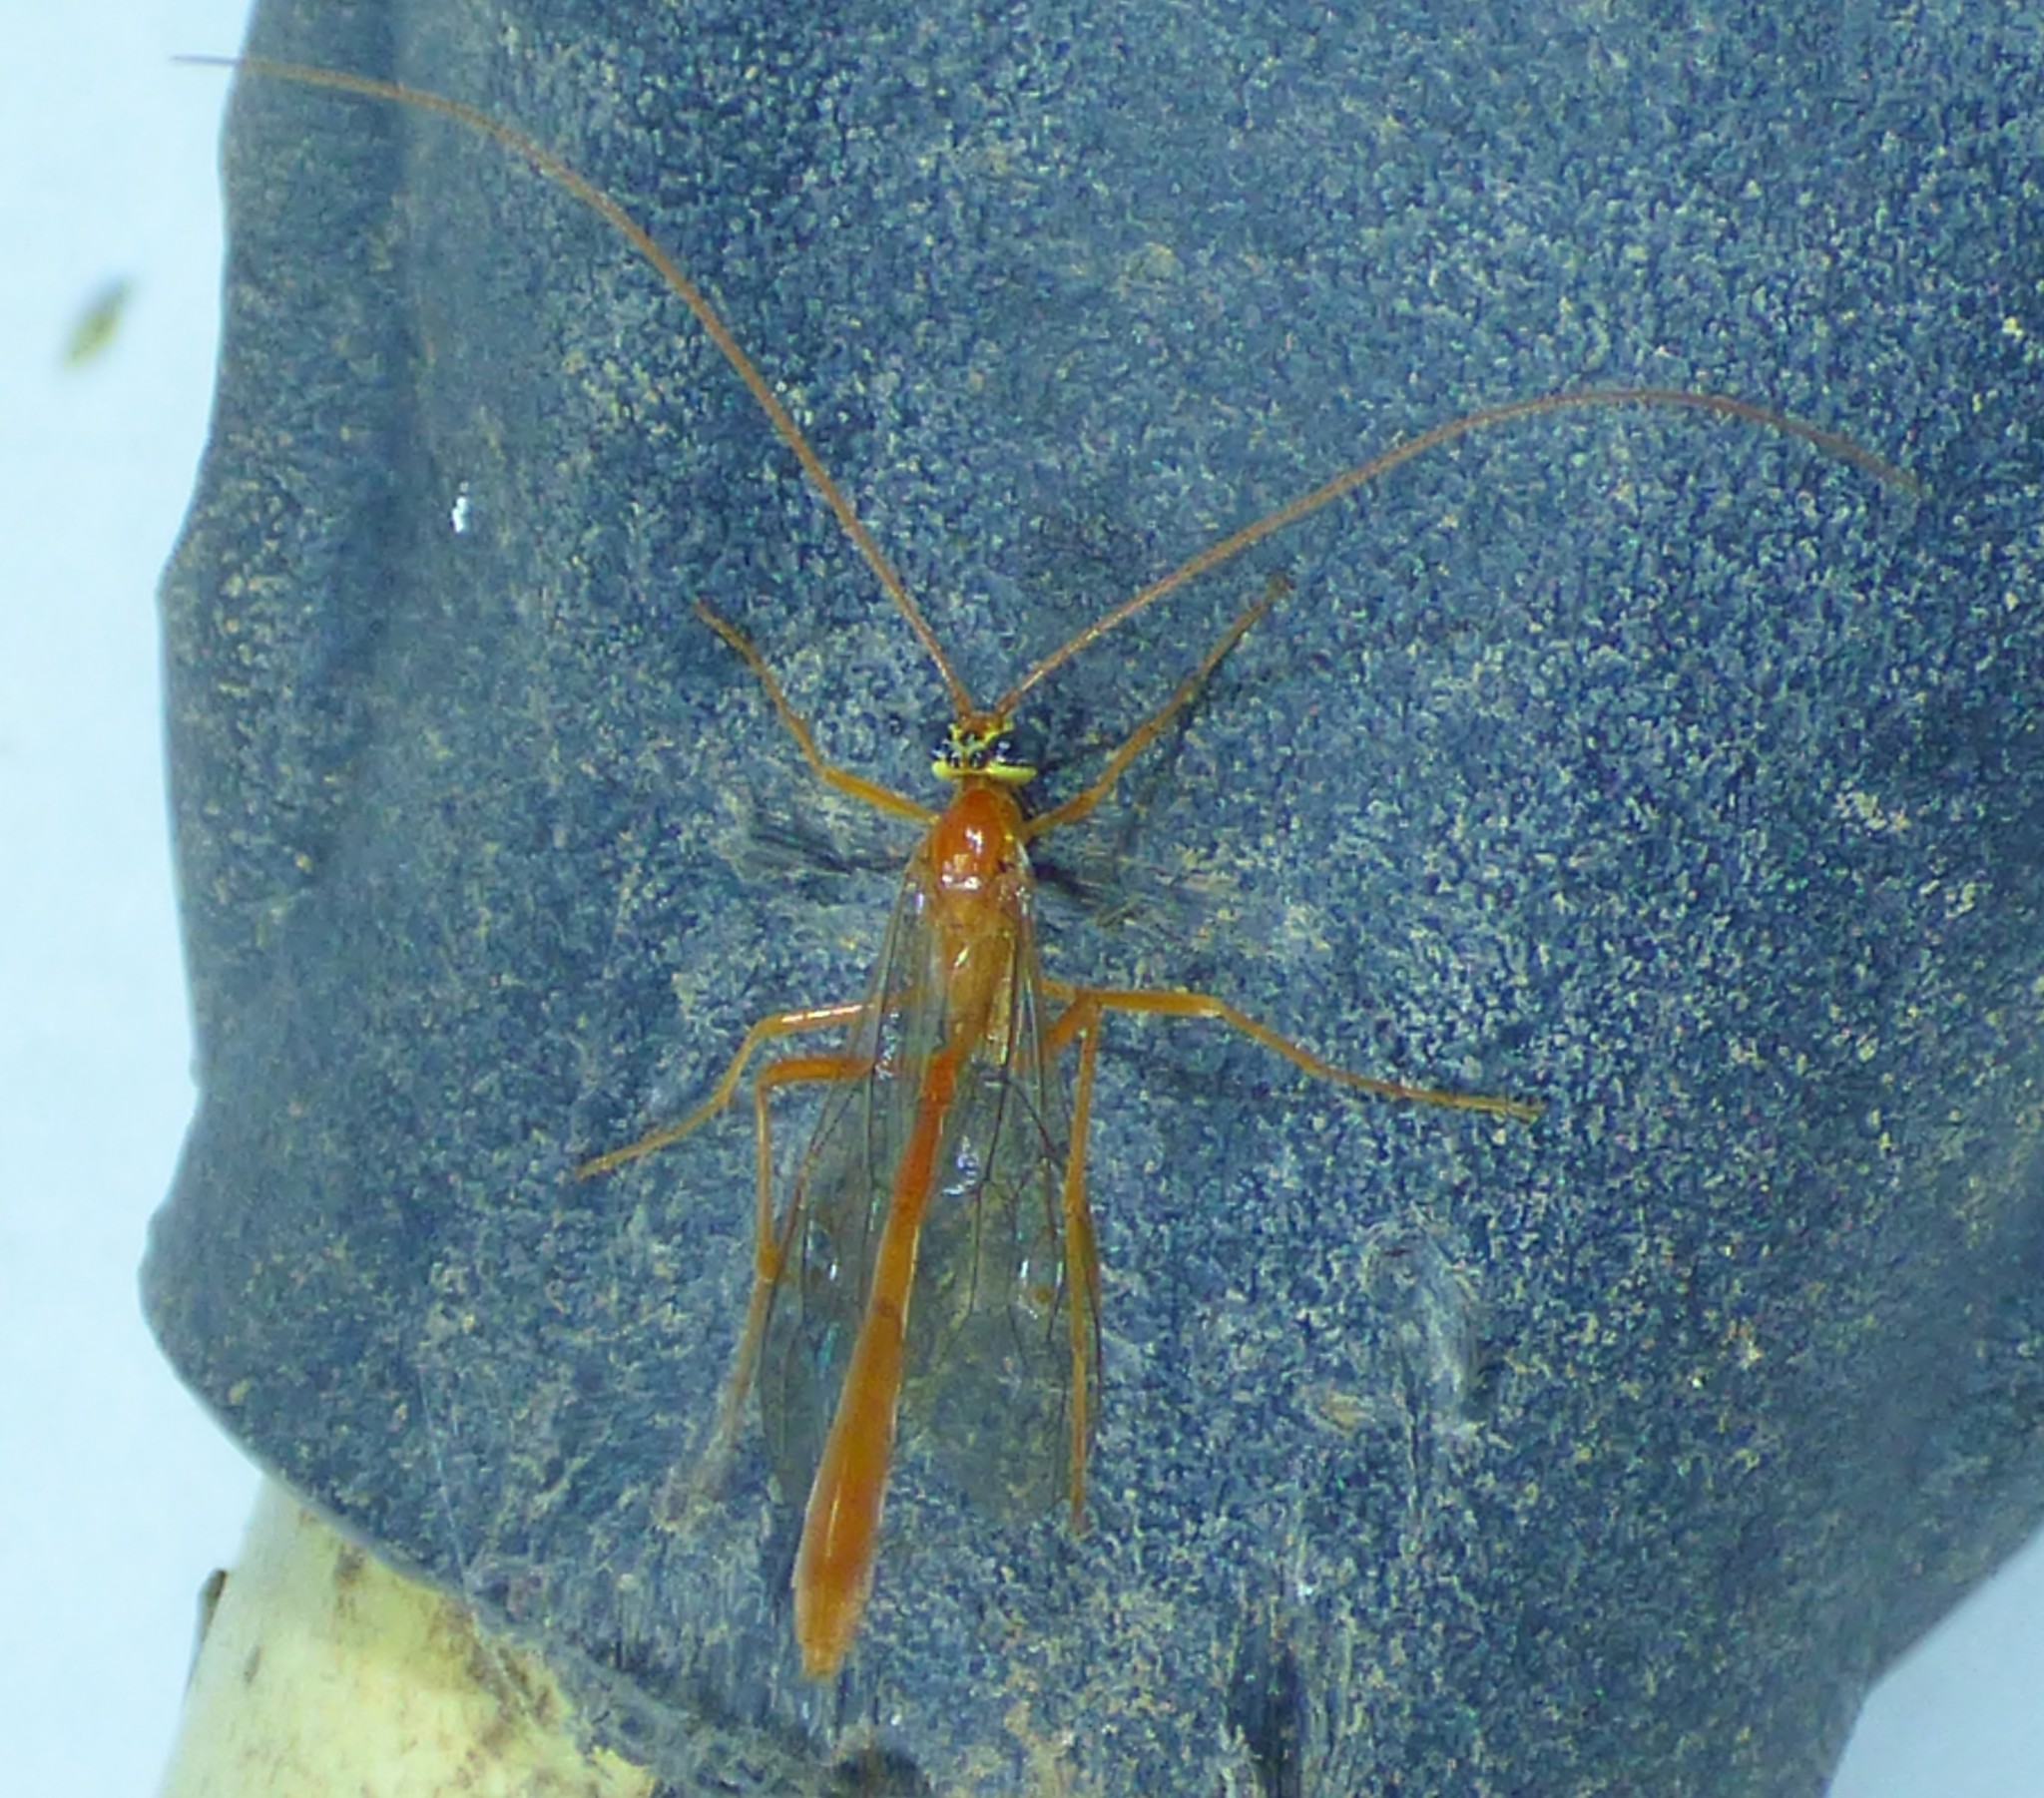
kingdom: Animalia
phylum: Arthropoda
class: Insecta
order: Hymenoptera
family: Ichneumonidae
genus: Enicospilus
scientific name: Enicospilus purgatus
